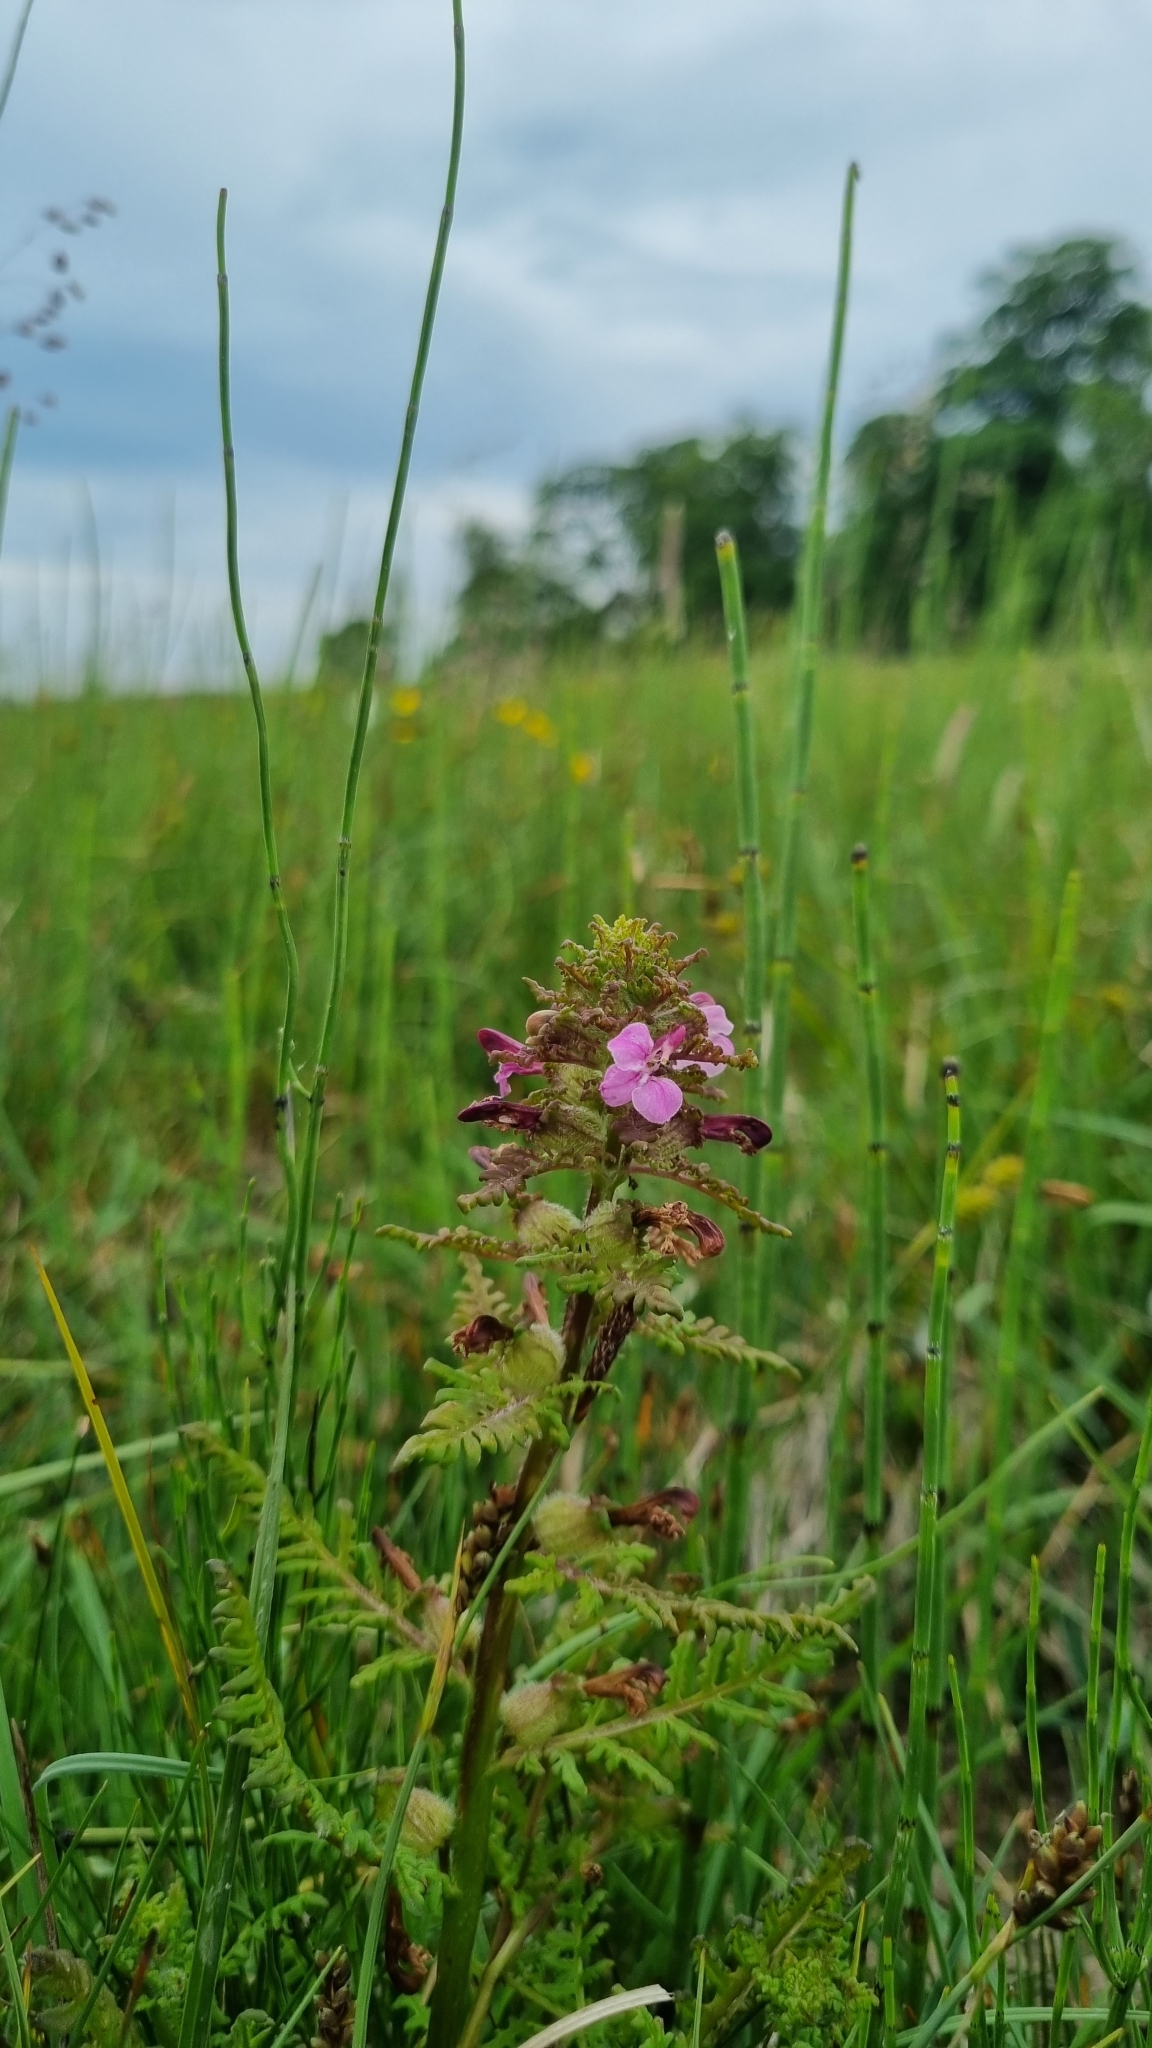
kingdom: Plantae
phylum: Tracheophyta
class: Magnoliopsida
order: Lamiales
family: Orobanchaceae
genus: Pedicularis
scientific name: Pedicularis palustris
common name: Marsh lousewort
